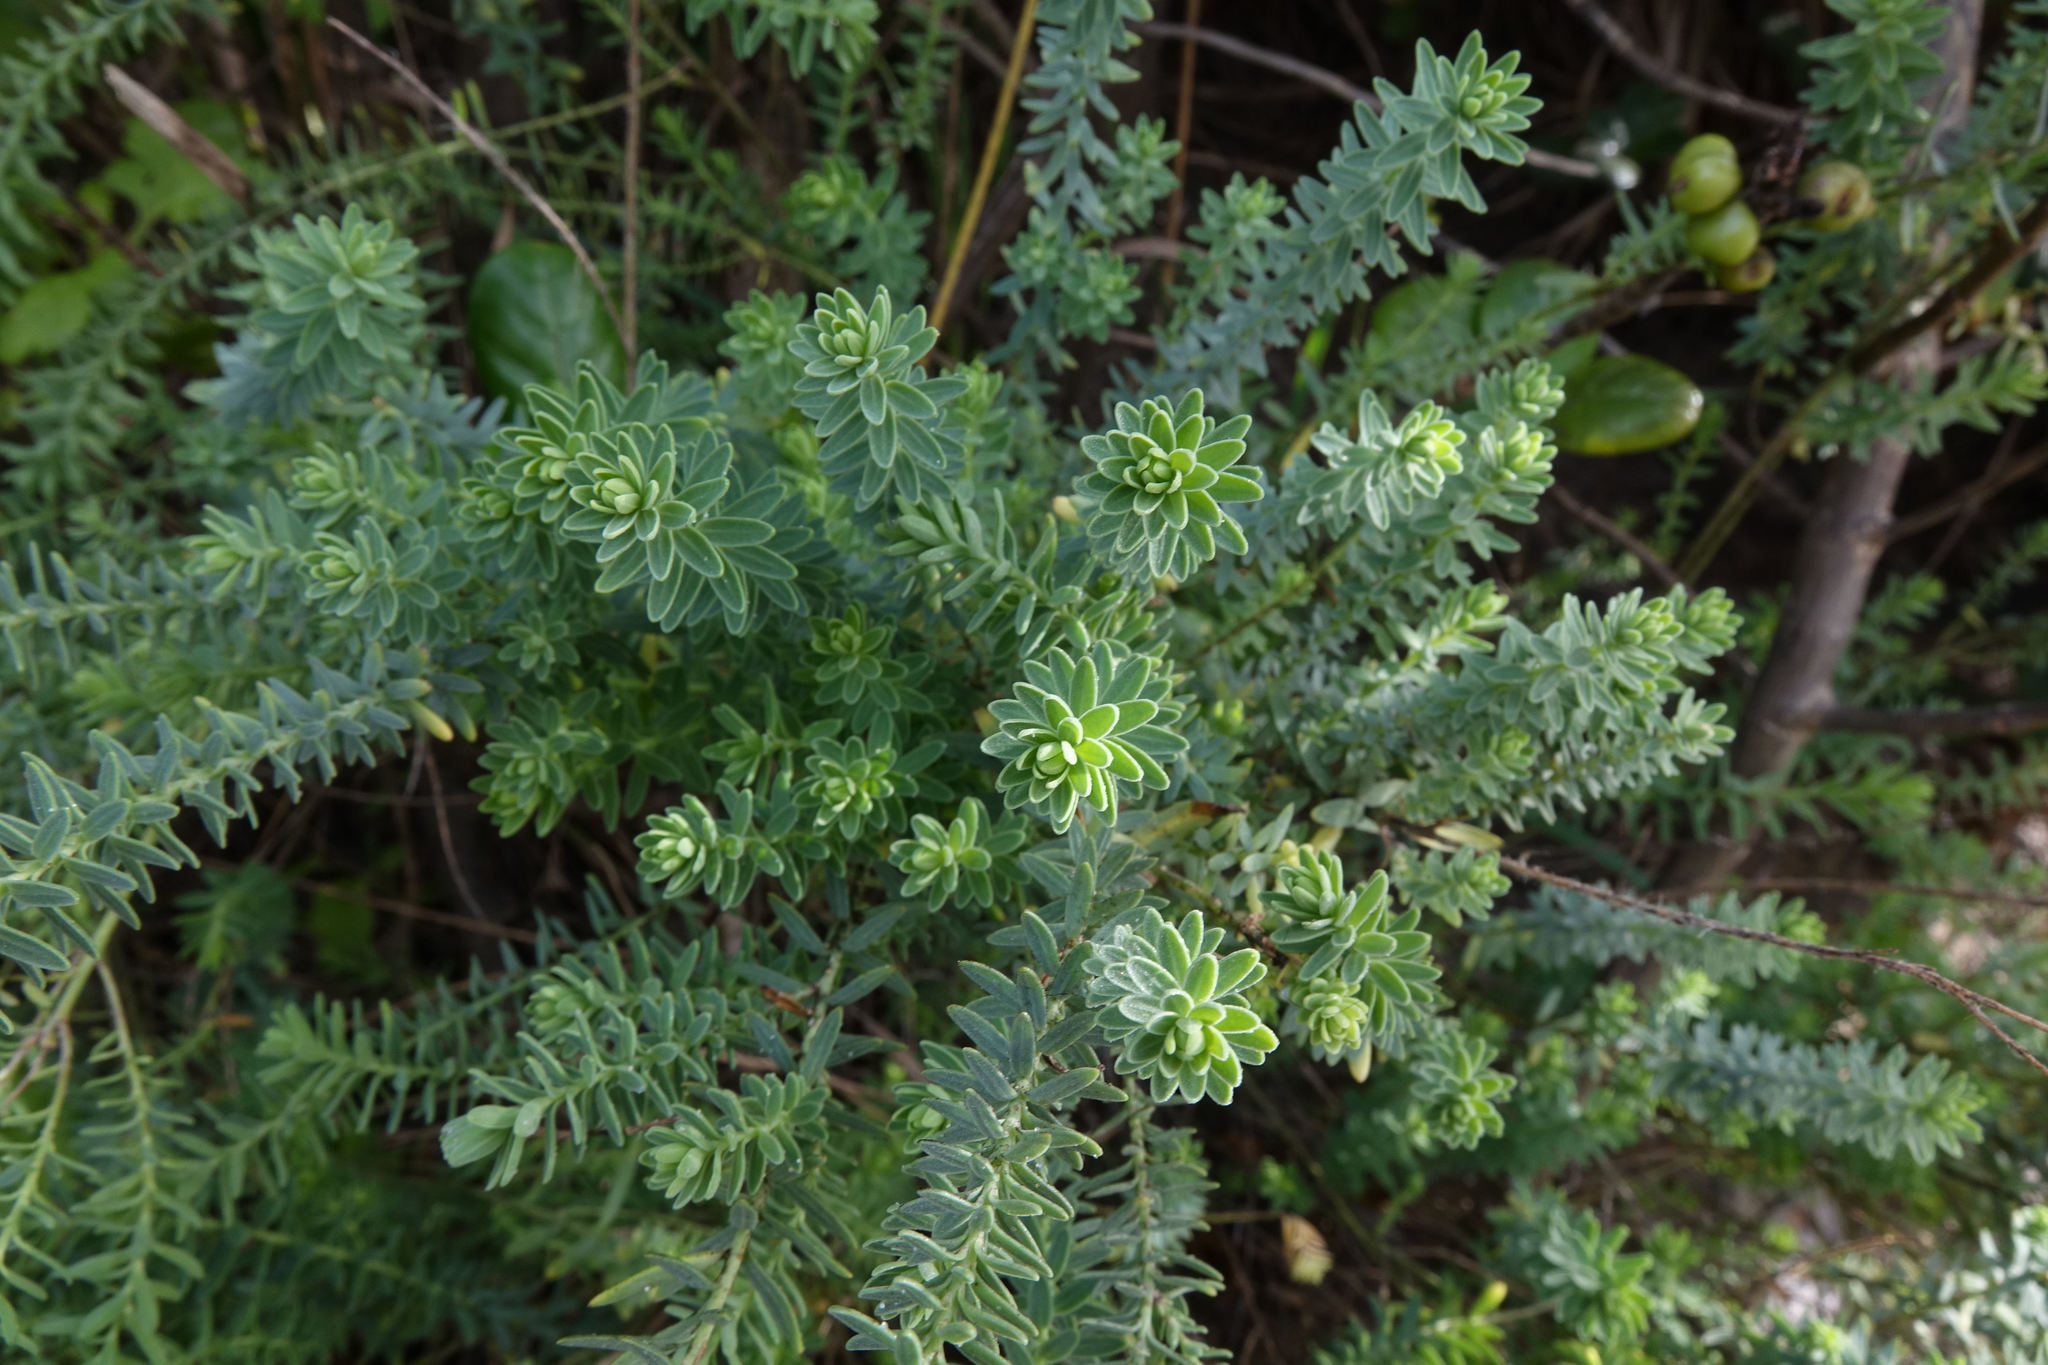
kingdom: Plantae
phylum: Tracheophyta
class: Magnoliopsida
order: Malpighiales
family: Linaceae
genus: Linum
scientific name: Linum monogynum
